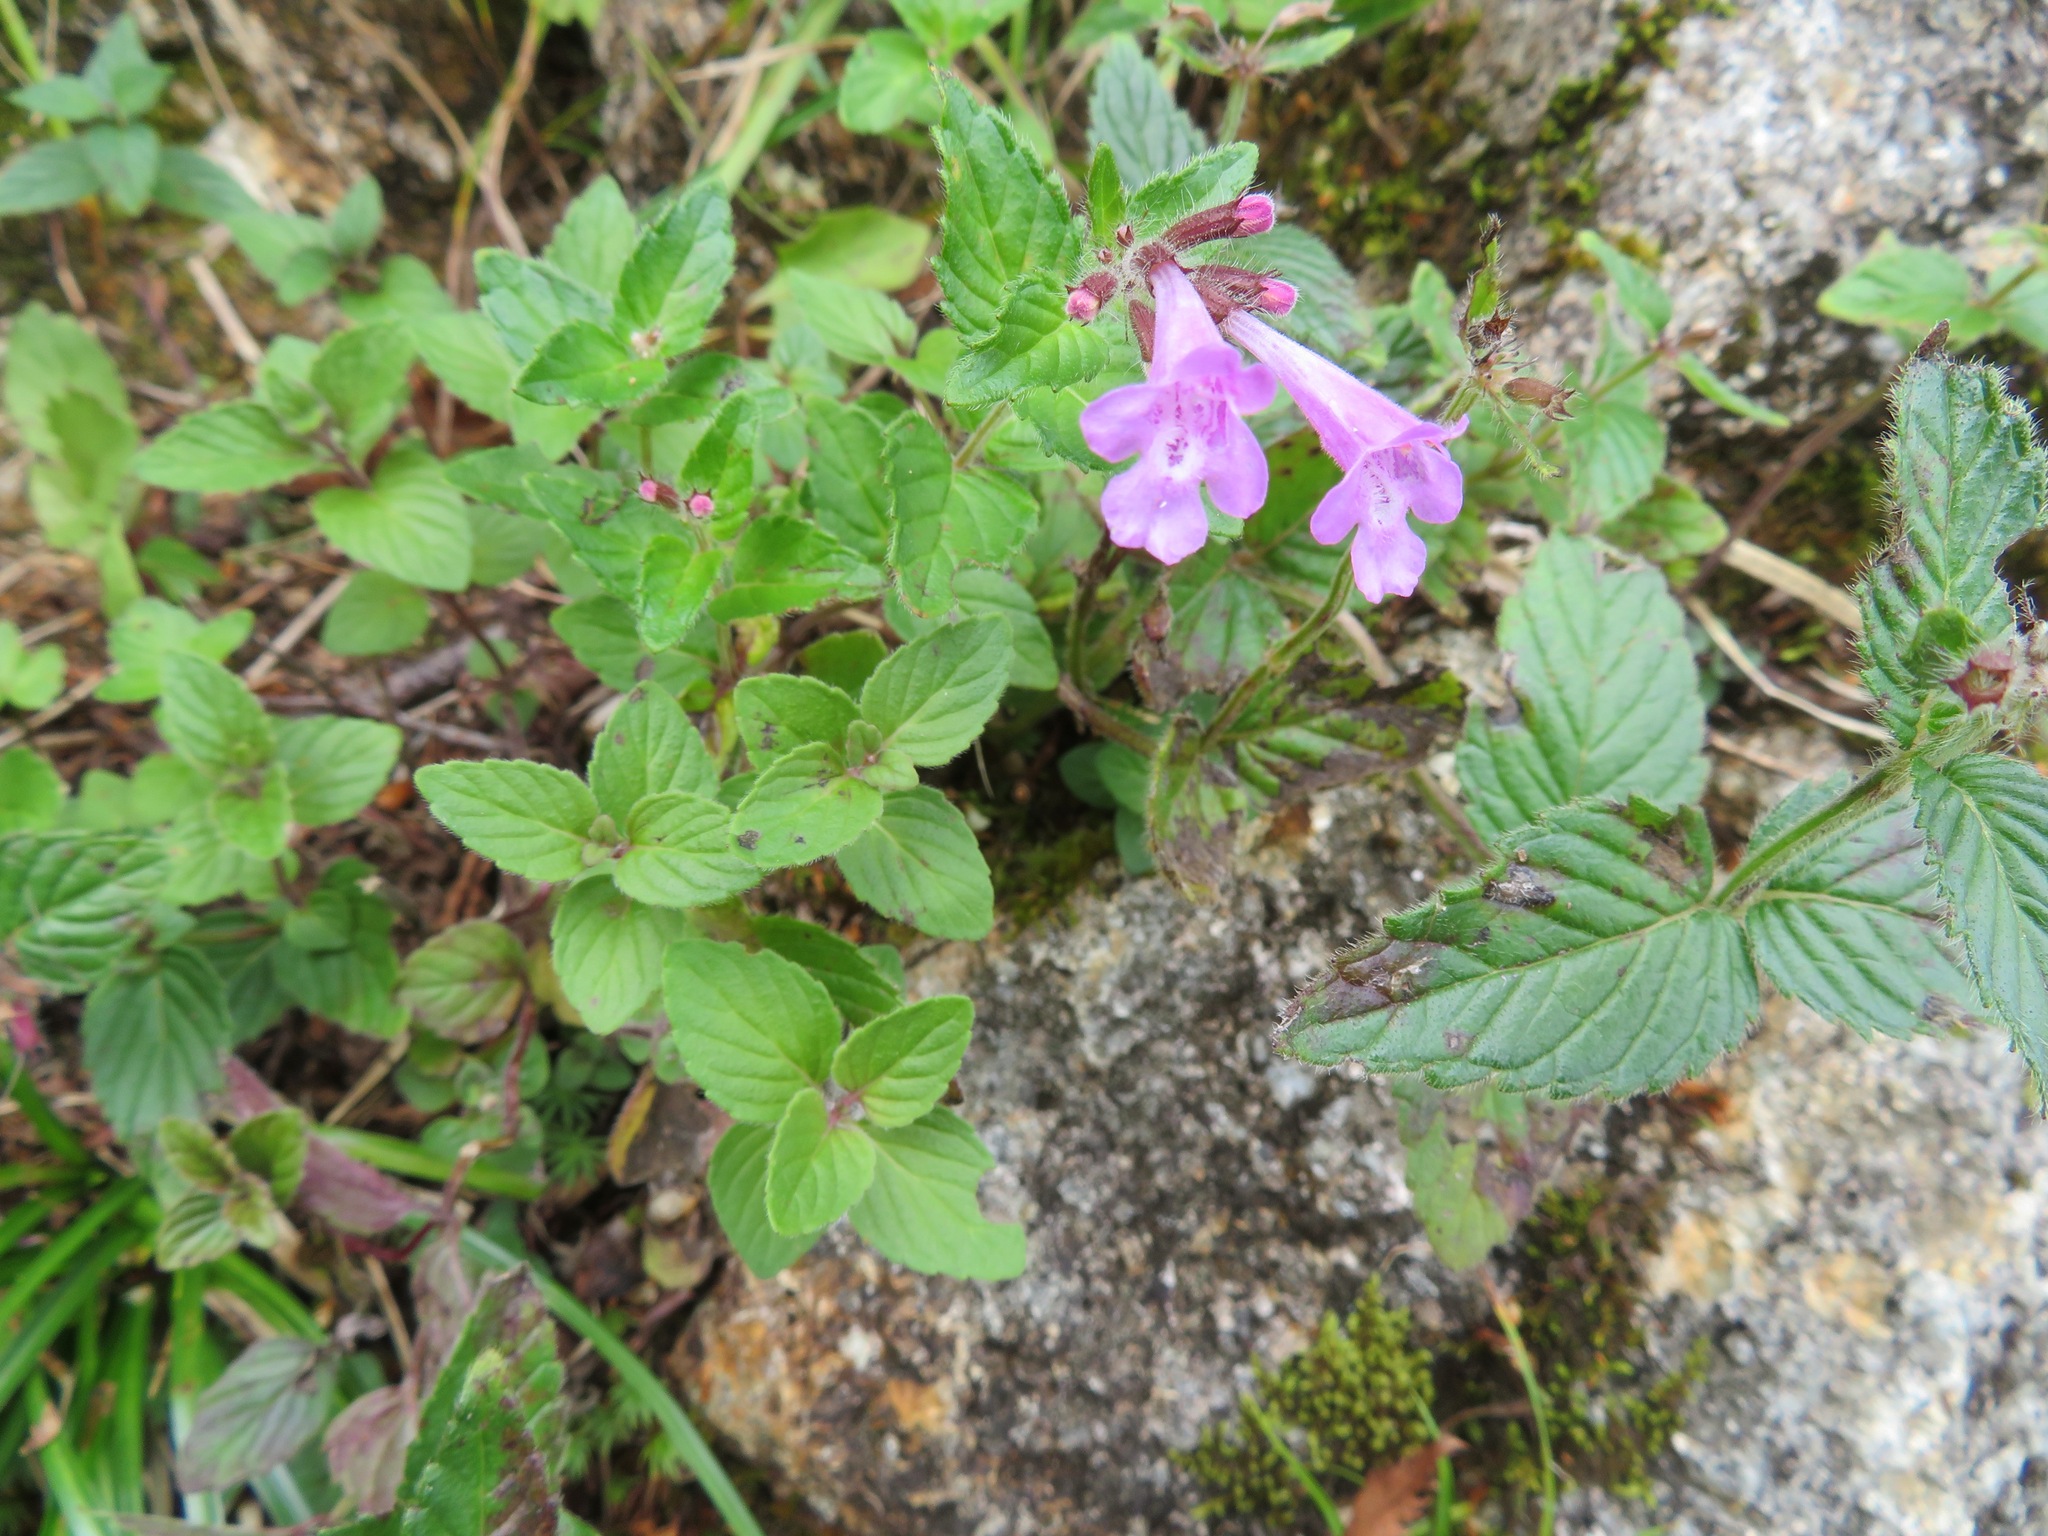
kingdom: Plantae
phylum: Tracheophyta
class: Magnoliopsida
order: Lamiales
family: Lamiaceae
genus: Clinopodium
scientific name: Clinopodium macranthum
